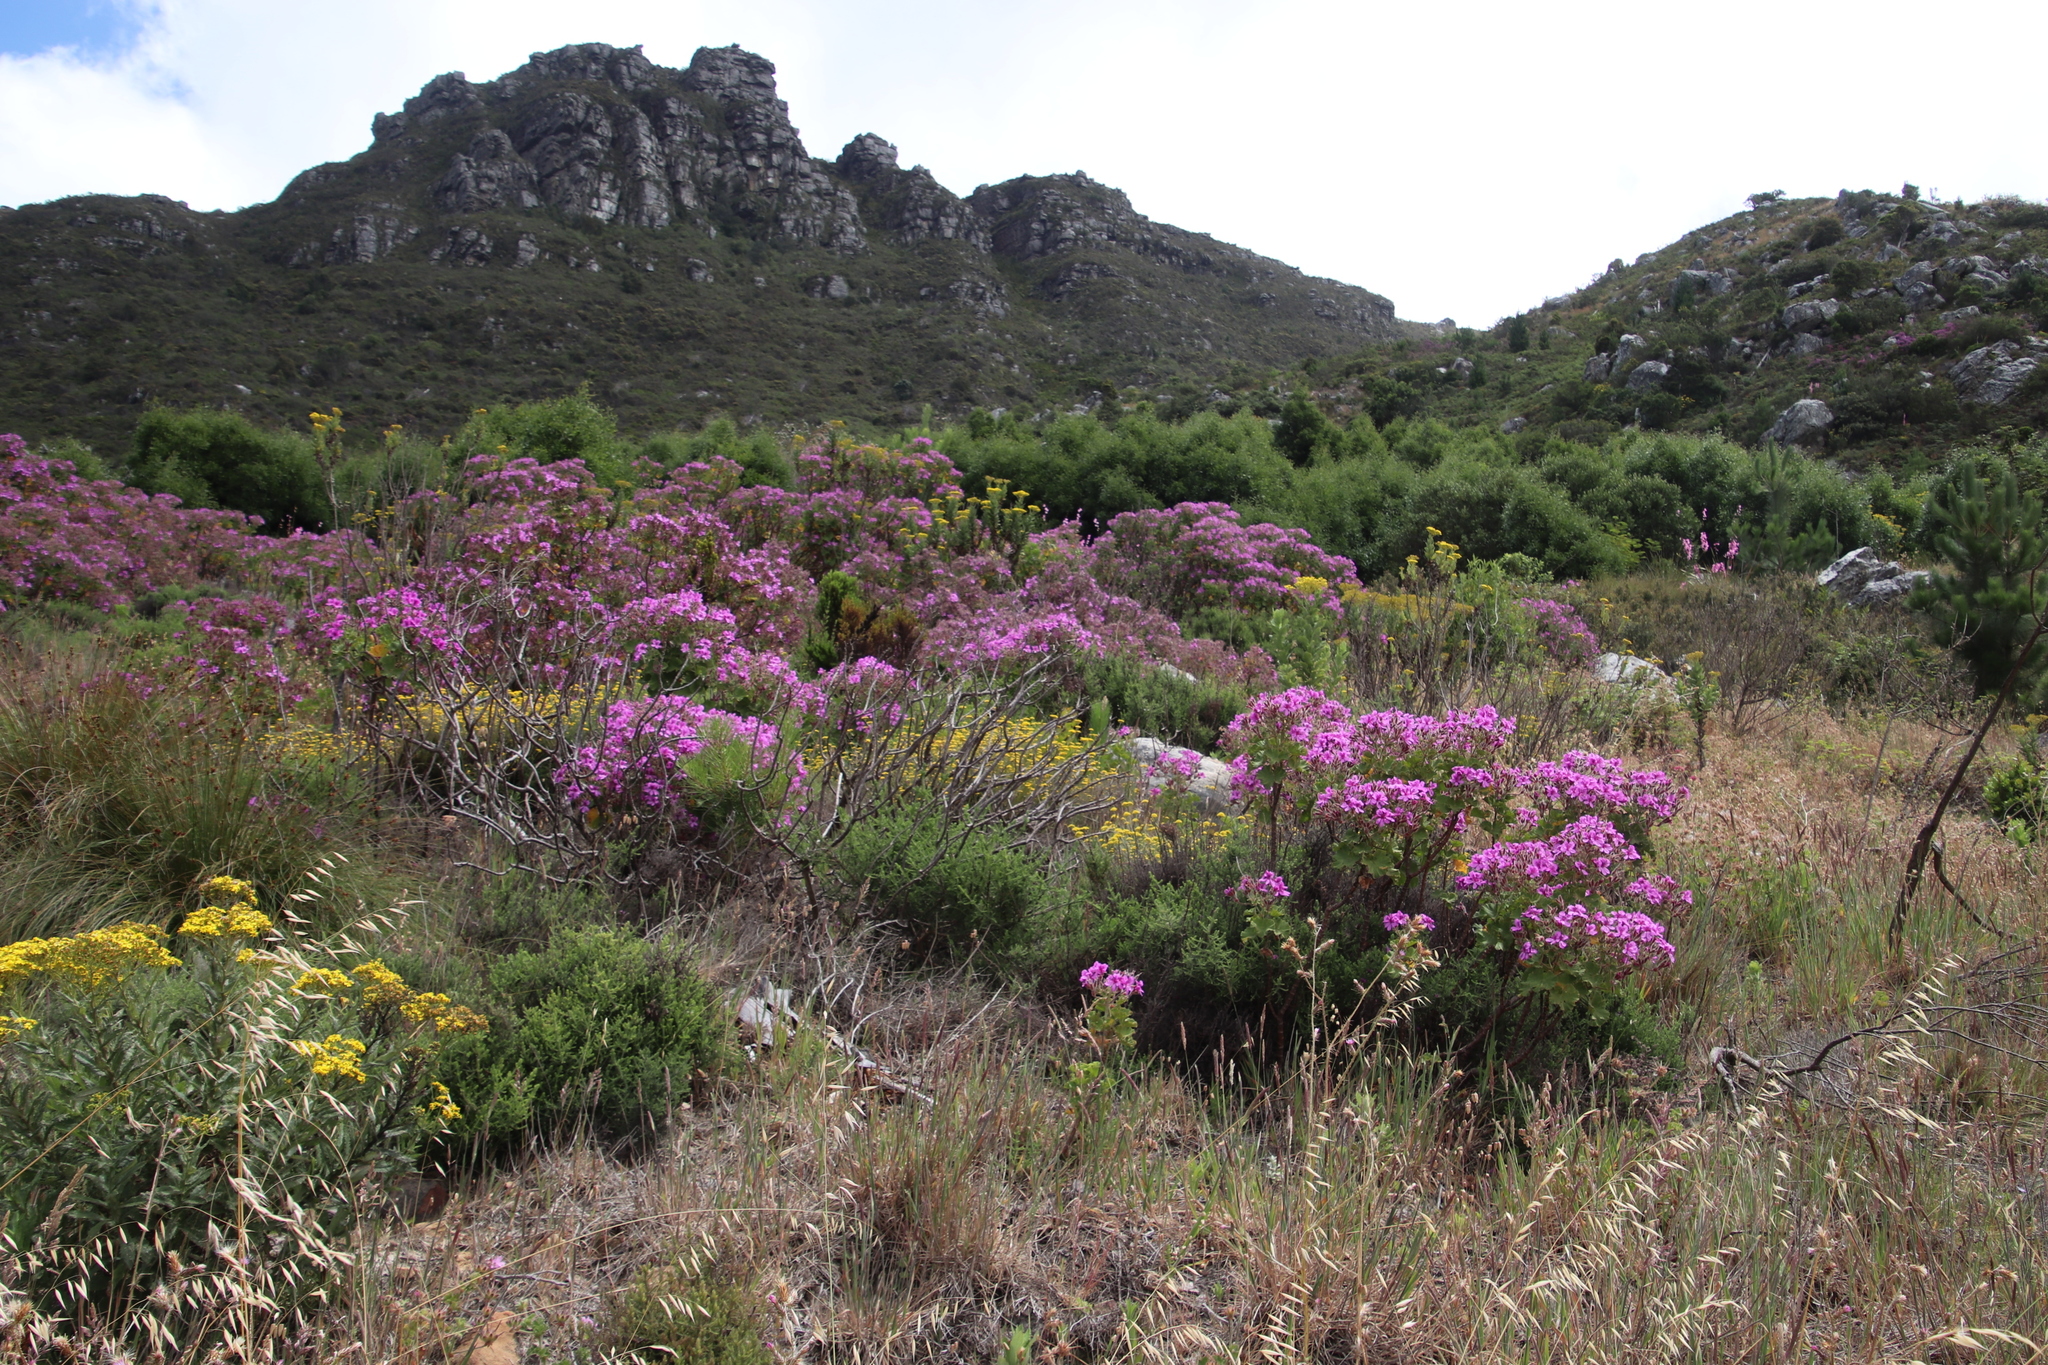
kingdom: Plantae
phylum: Tracheophyta
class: Magnoliopsida
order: Geraniales
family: Geraniaceae
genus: Pelargonium
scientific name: Pelargonium cucullatum
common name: Tree pelargonium
